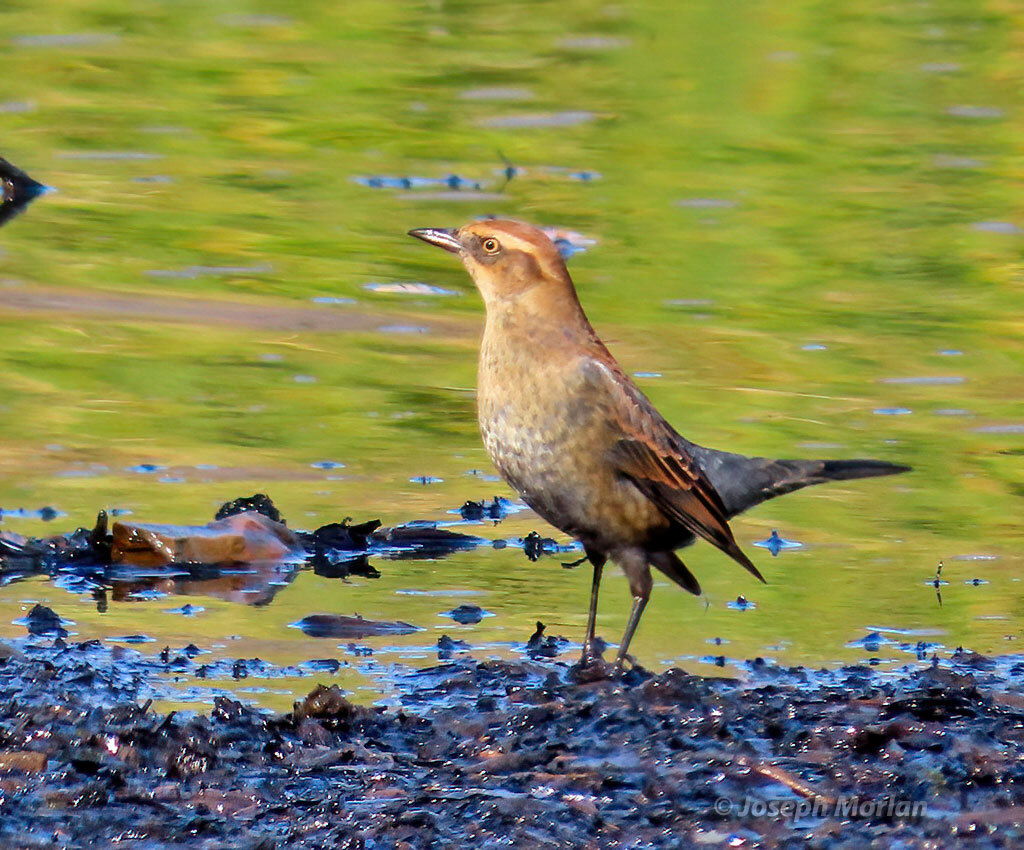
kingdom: Animalia
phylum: Chordata
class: Aves
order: Passeriformes
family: Icteridae
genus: Euphagus
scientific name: Euphagus carolinus
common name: Rusty blackbird
